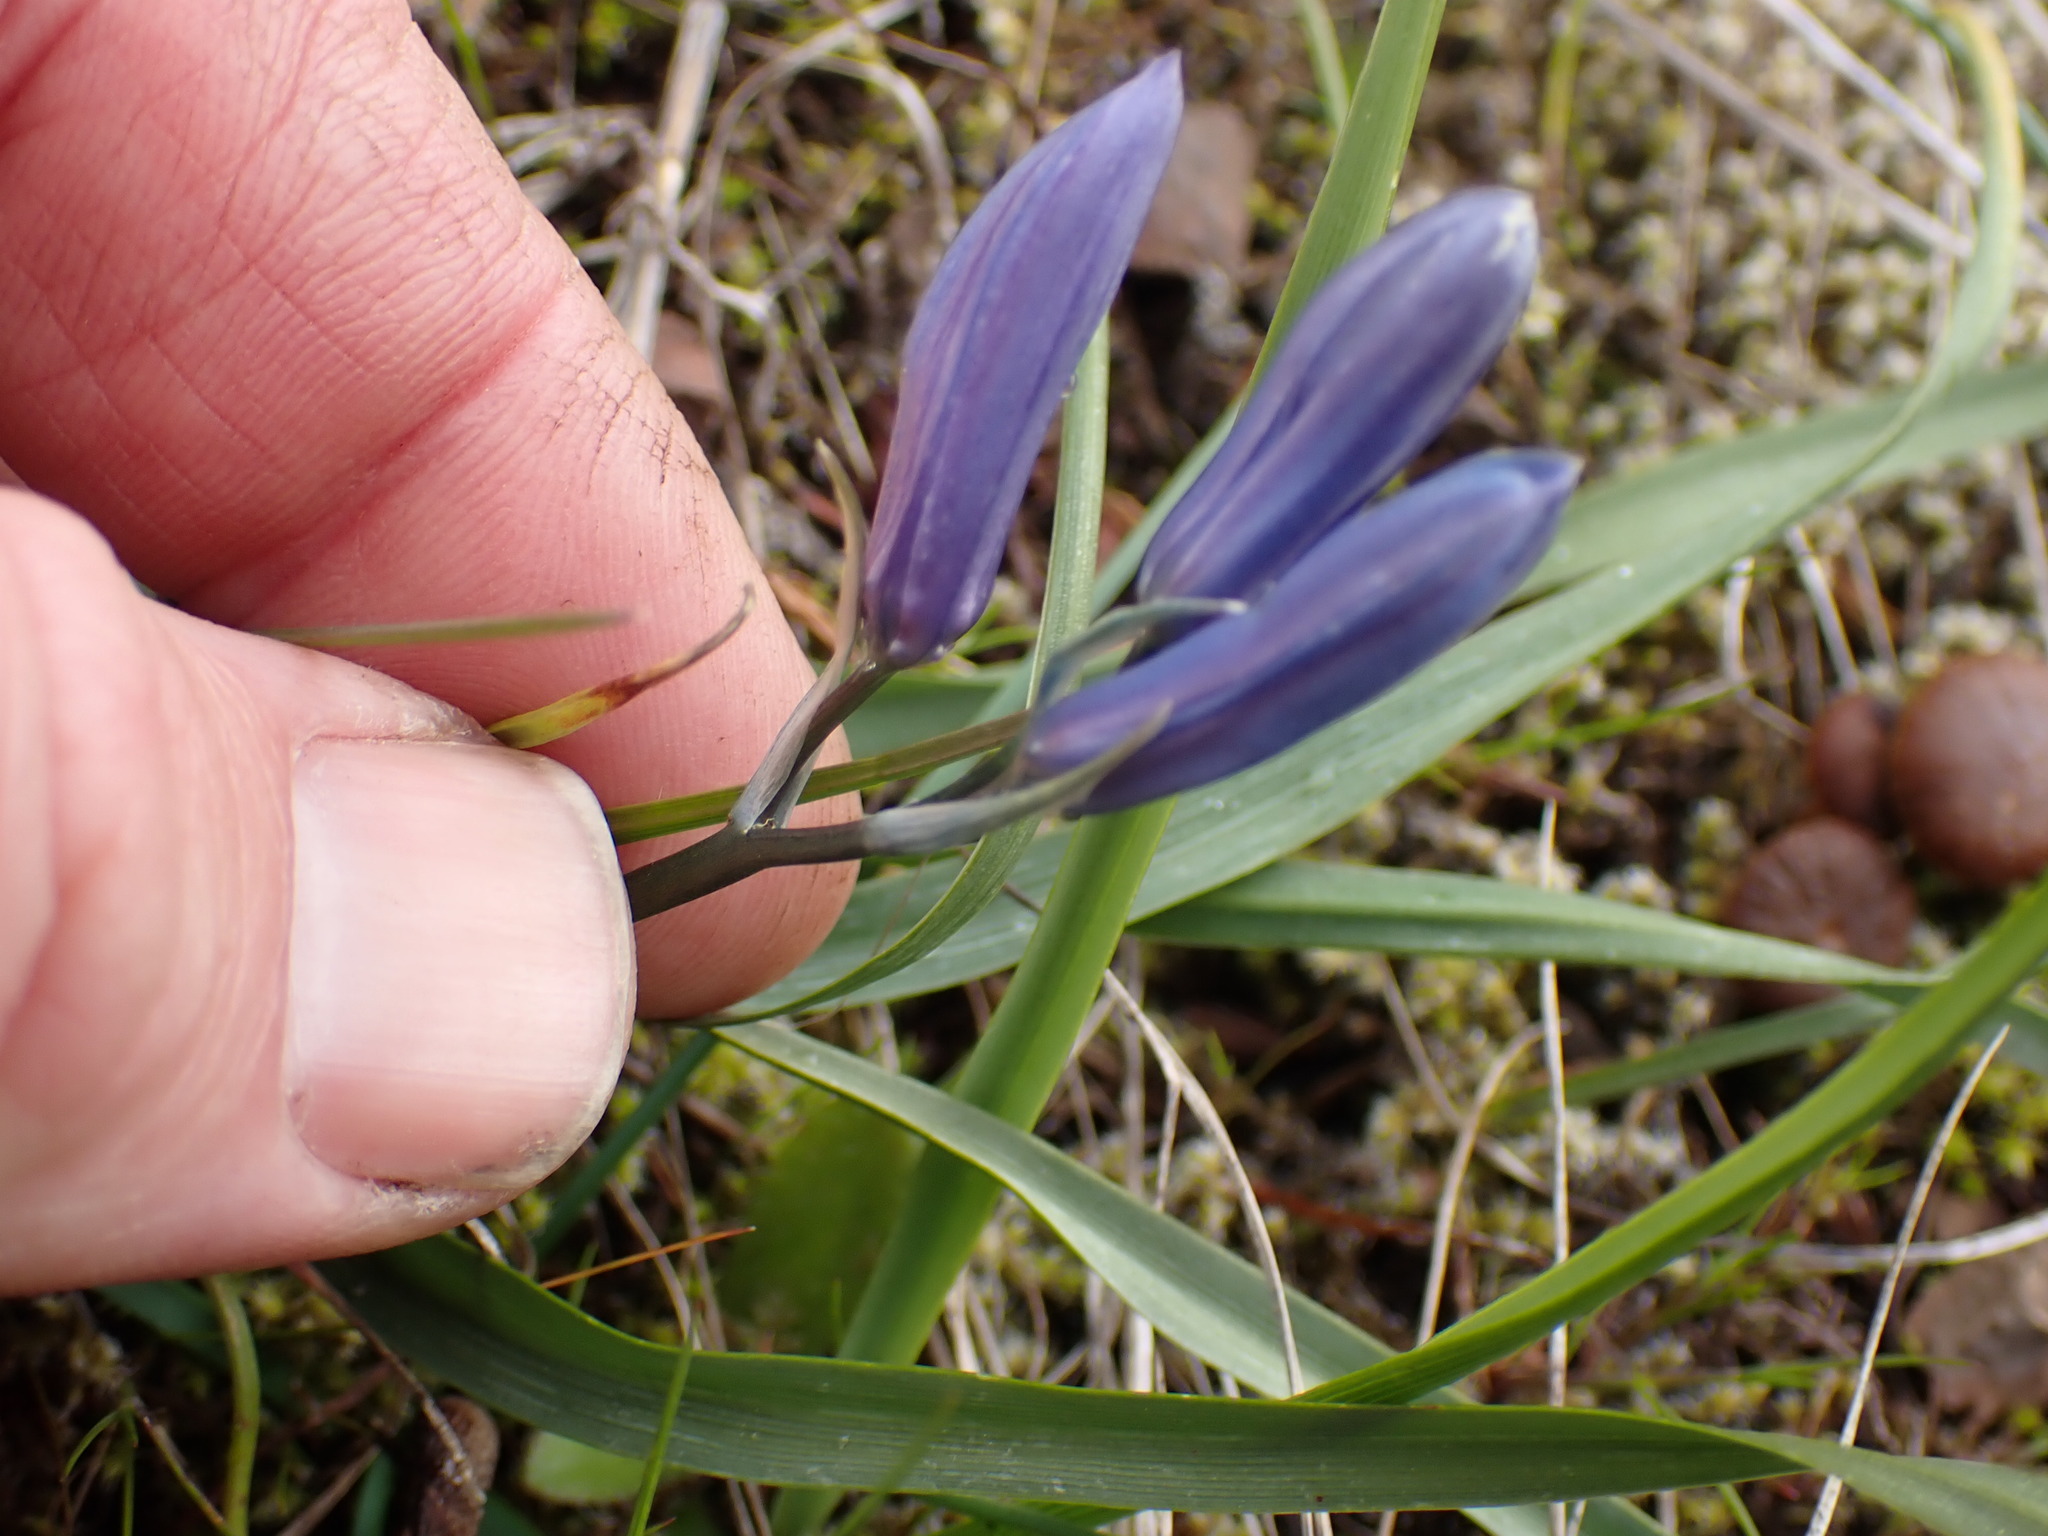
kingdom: Plantae
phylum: Tracheophyta
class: Liliopsida
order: Asparagales
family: Asparagaceae
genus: Camassia
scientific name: Camassia quamash
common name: Common camas
